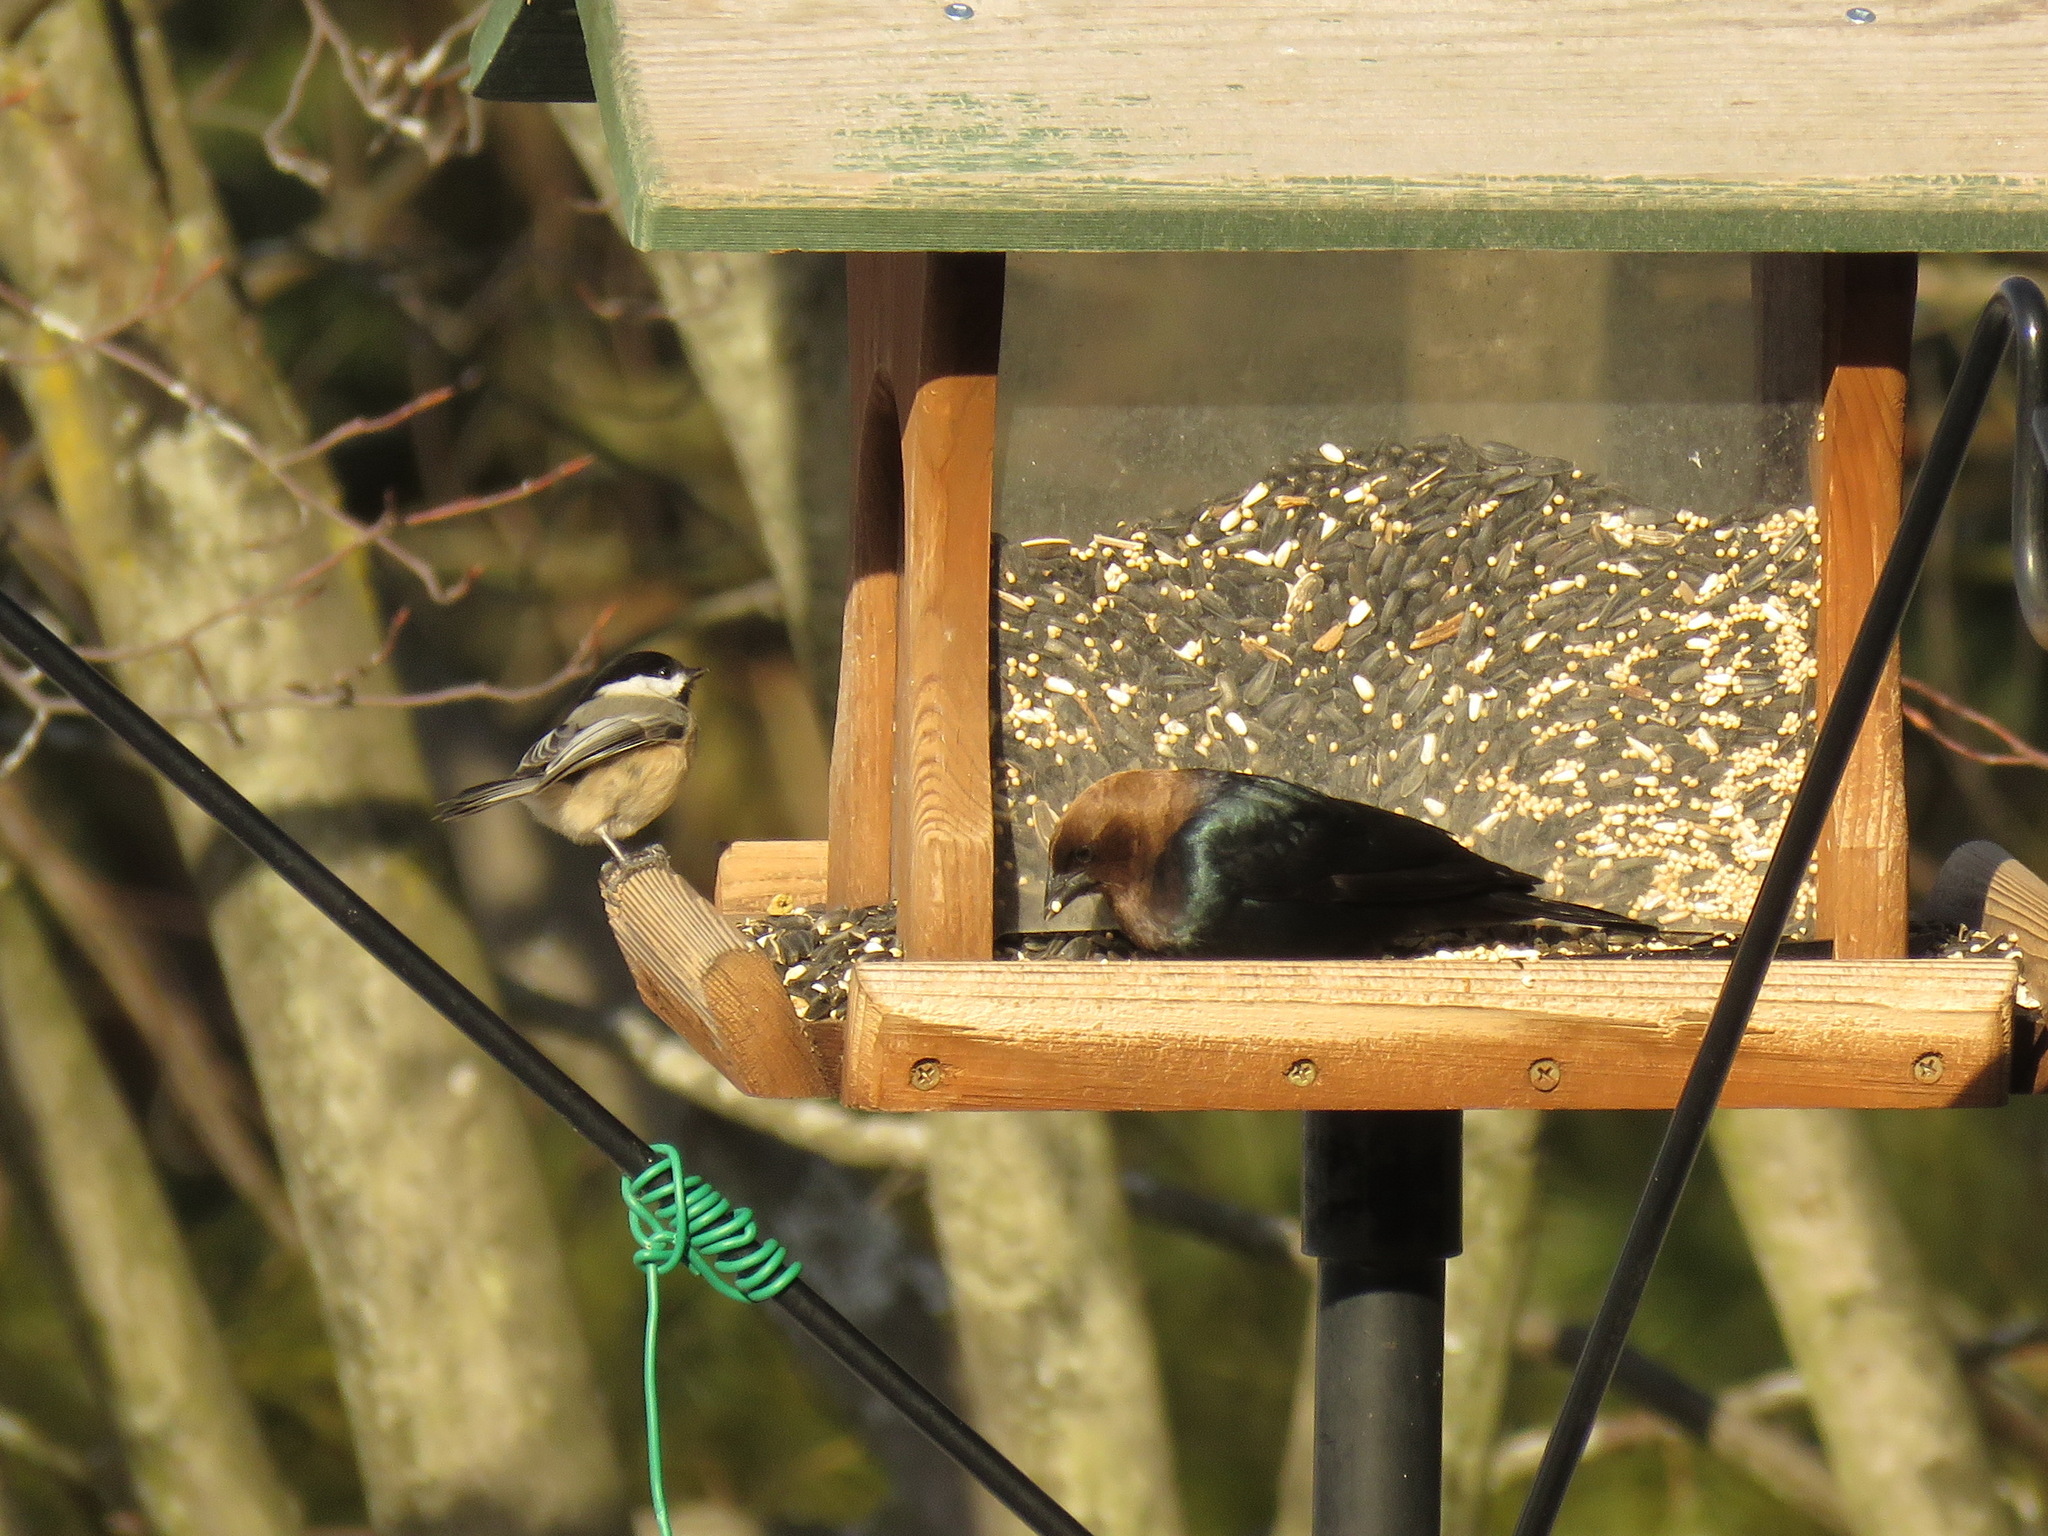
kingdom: Animalia
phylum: Chordata
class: Aves
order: Passeriformes
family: Paridae
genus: Poecile
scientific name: Poecile atricapillus
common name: Black-capped chickadee
